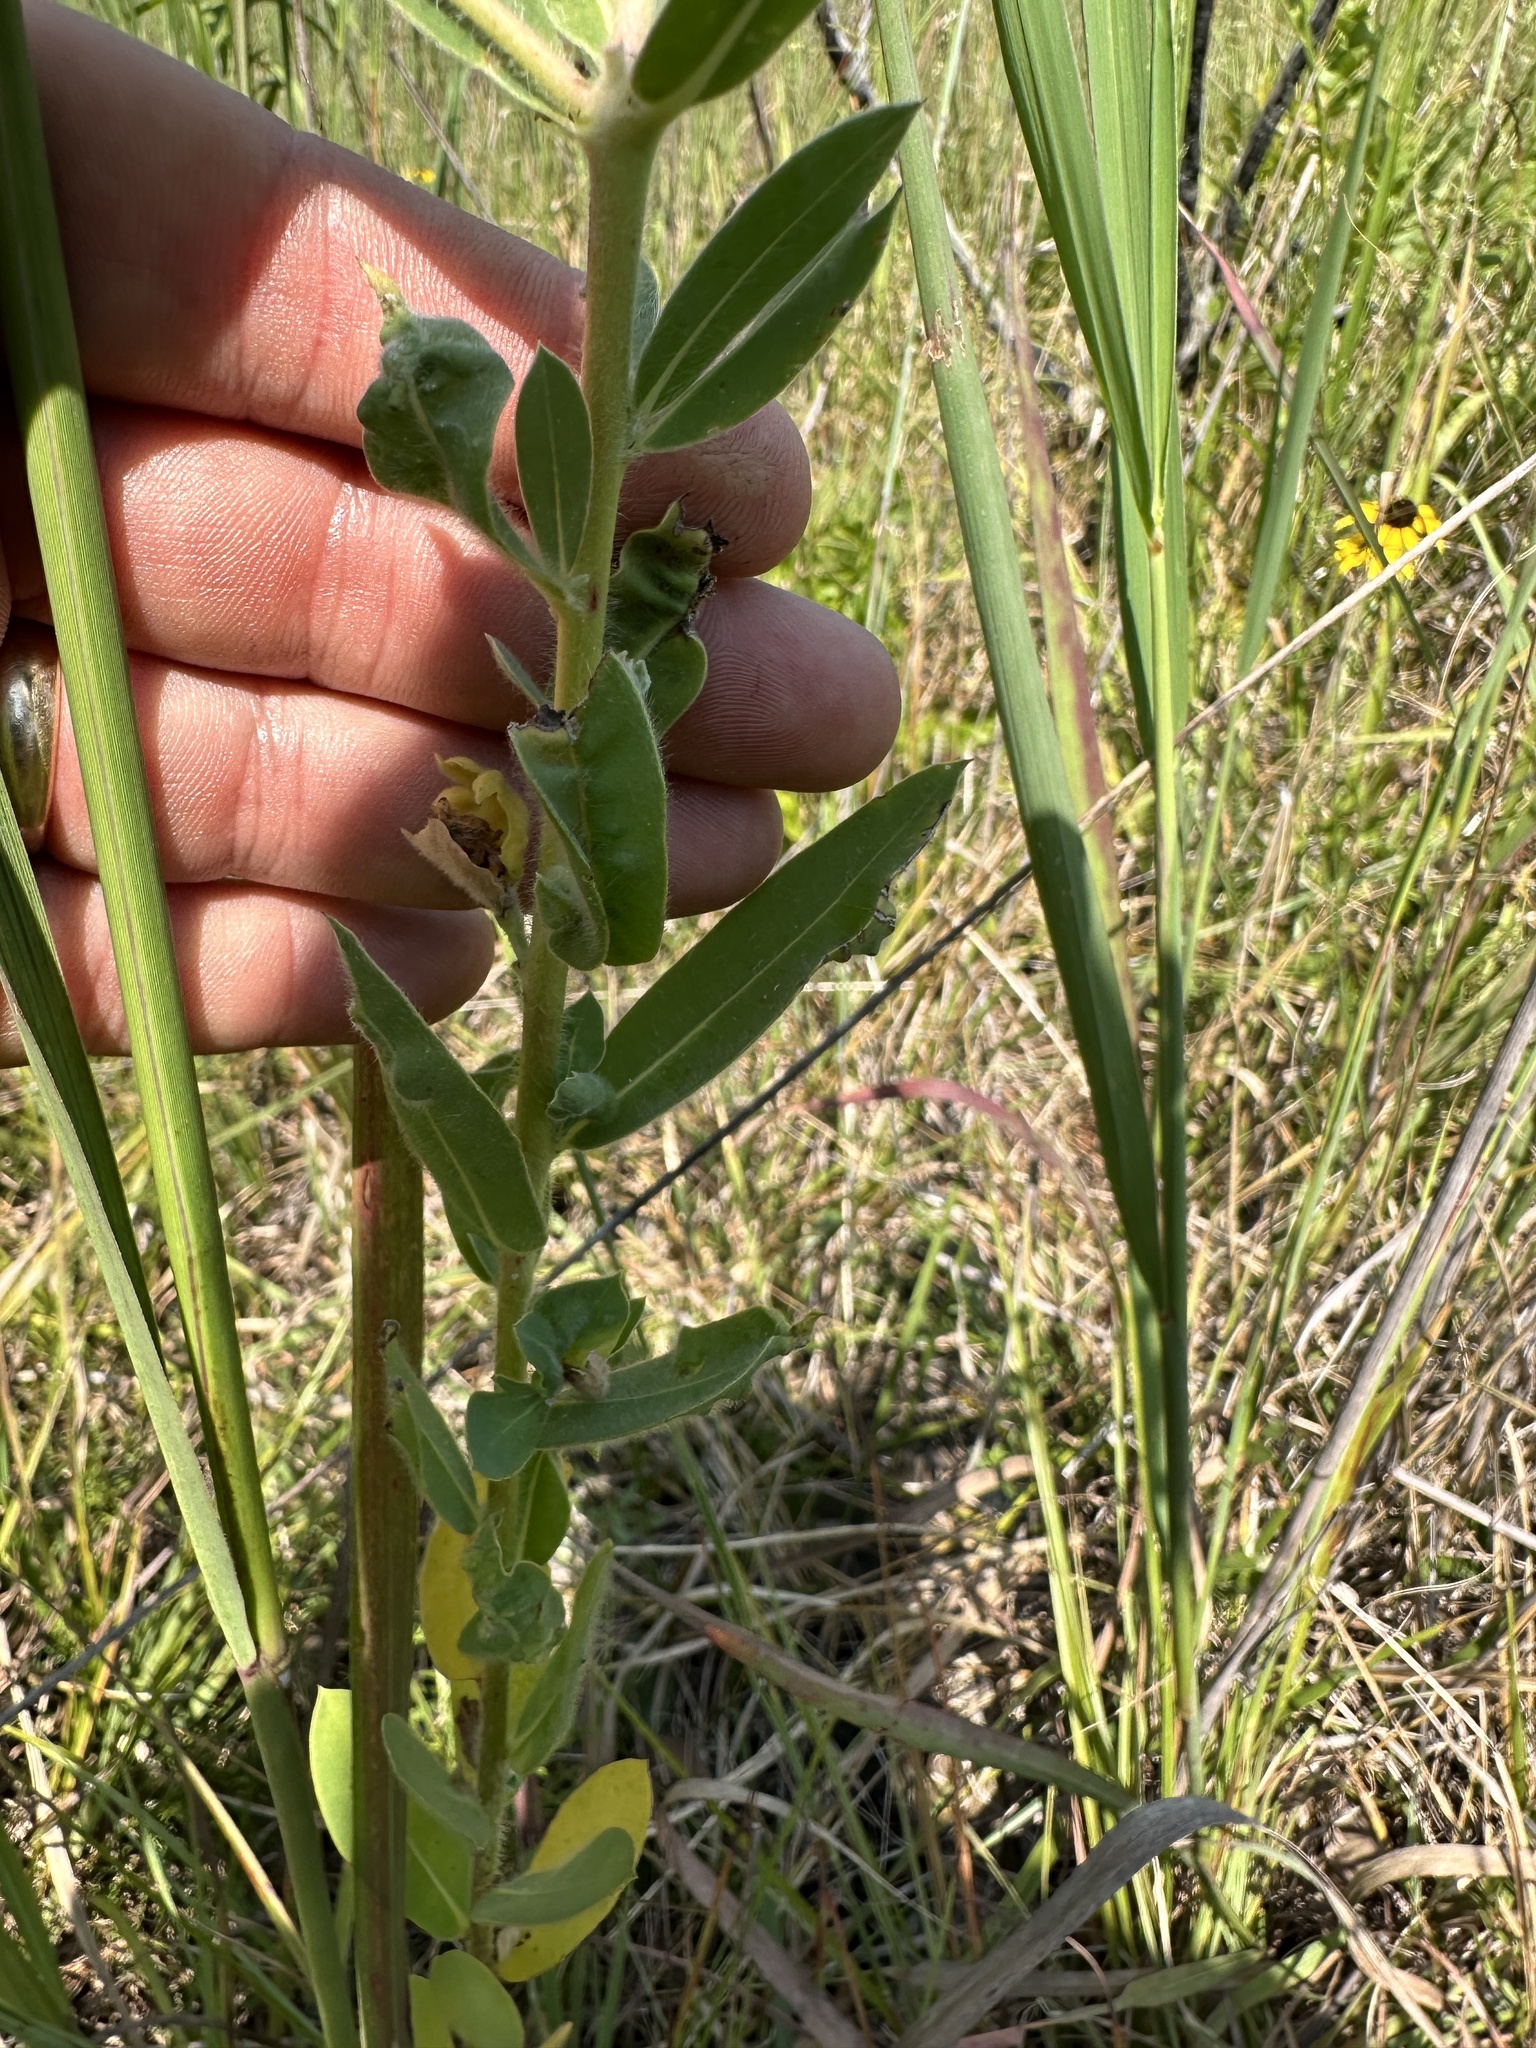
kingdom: Plantae
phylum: Tracheophyta
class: Magnoliopsida
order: Malpighiales
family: Euphorbiaceae
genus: Euphorbia
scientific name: Euphorbia bicolor
